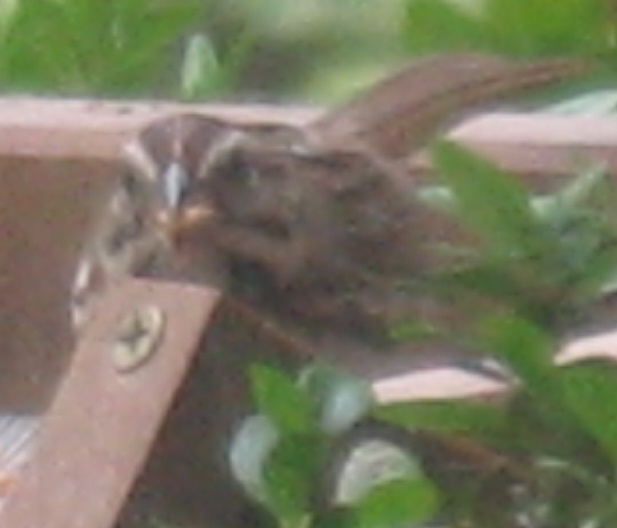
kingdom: Animalia
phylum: Chordata
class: Aves
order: Passeriformes
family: Passerellidae
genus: Melospiza
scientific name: Melospiza melodia
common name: Song sparrow
